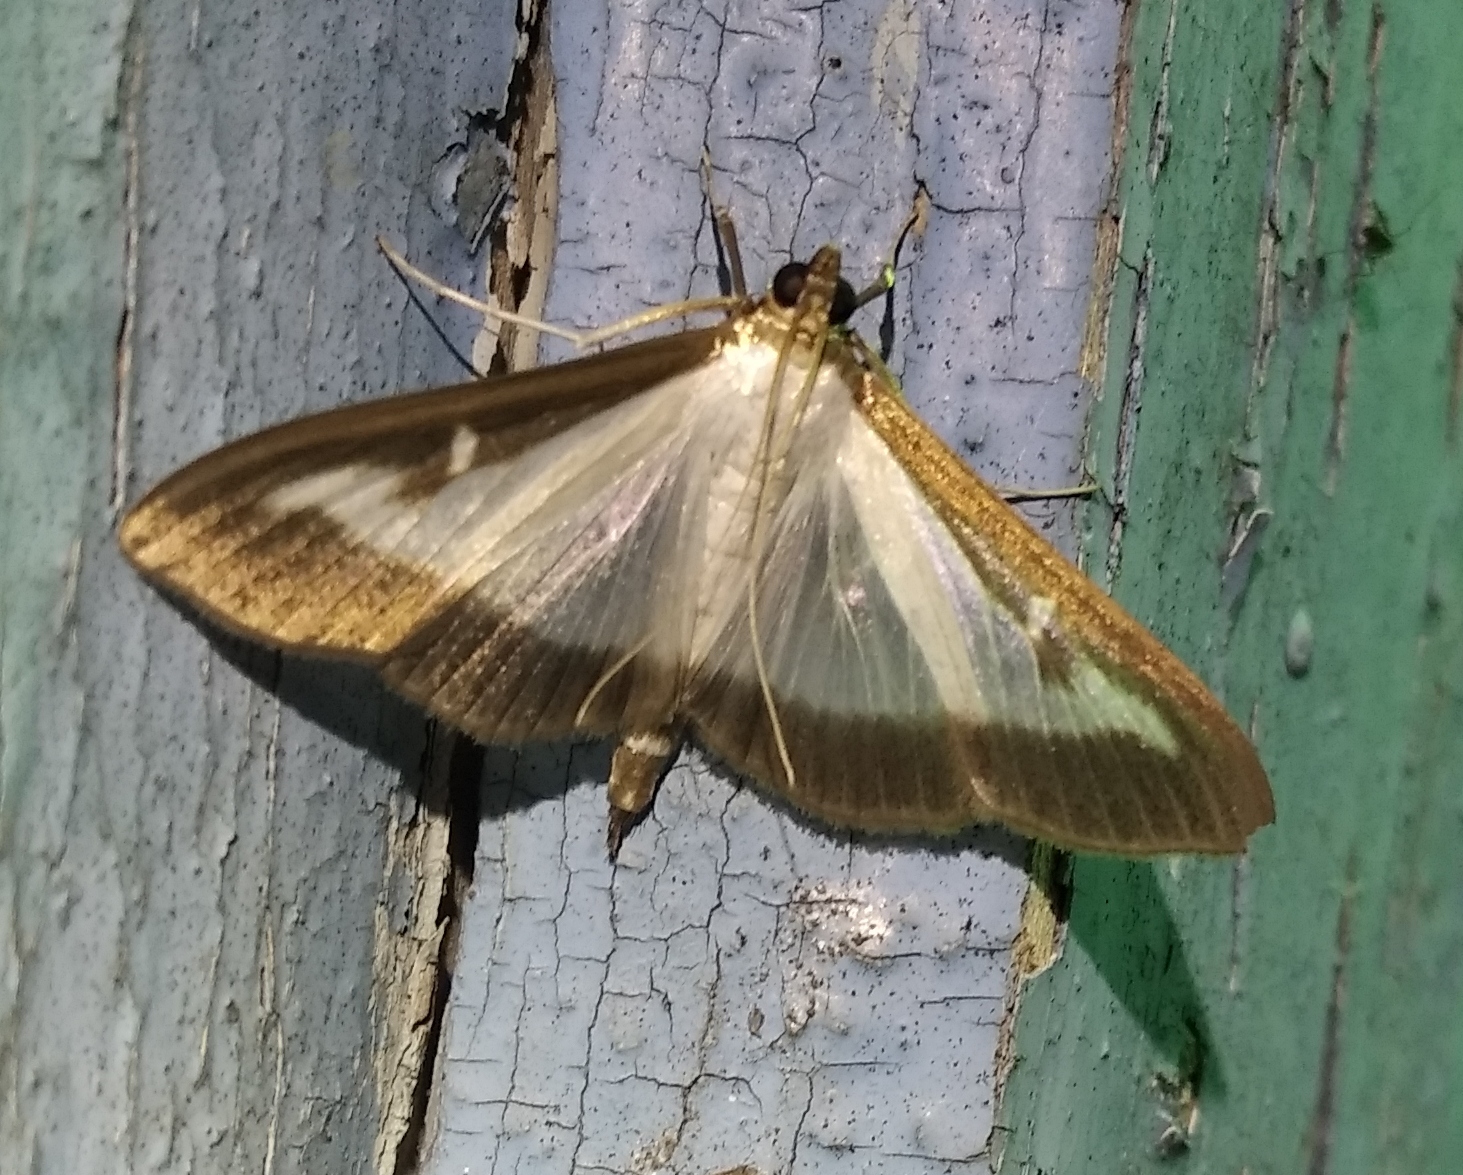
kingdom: Animalia
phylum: Arthropoda
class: Insecta
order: Lepidoptera
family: Crambidae
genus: Cydalima
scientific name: Cydalima perspectalis
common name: Box tree moth
